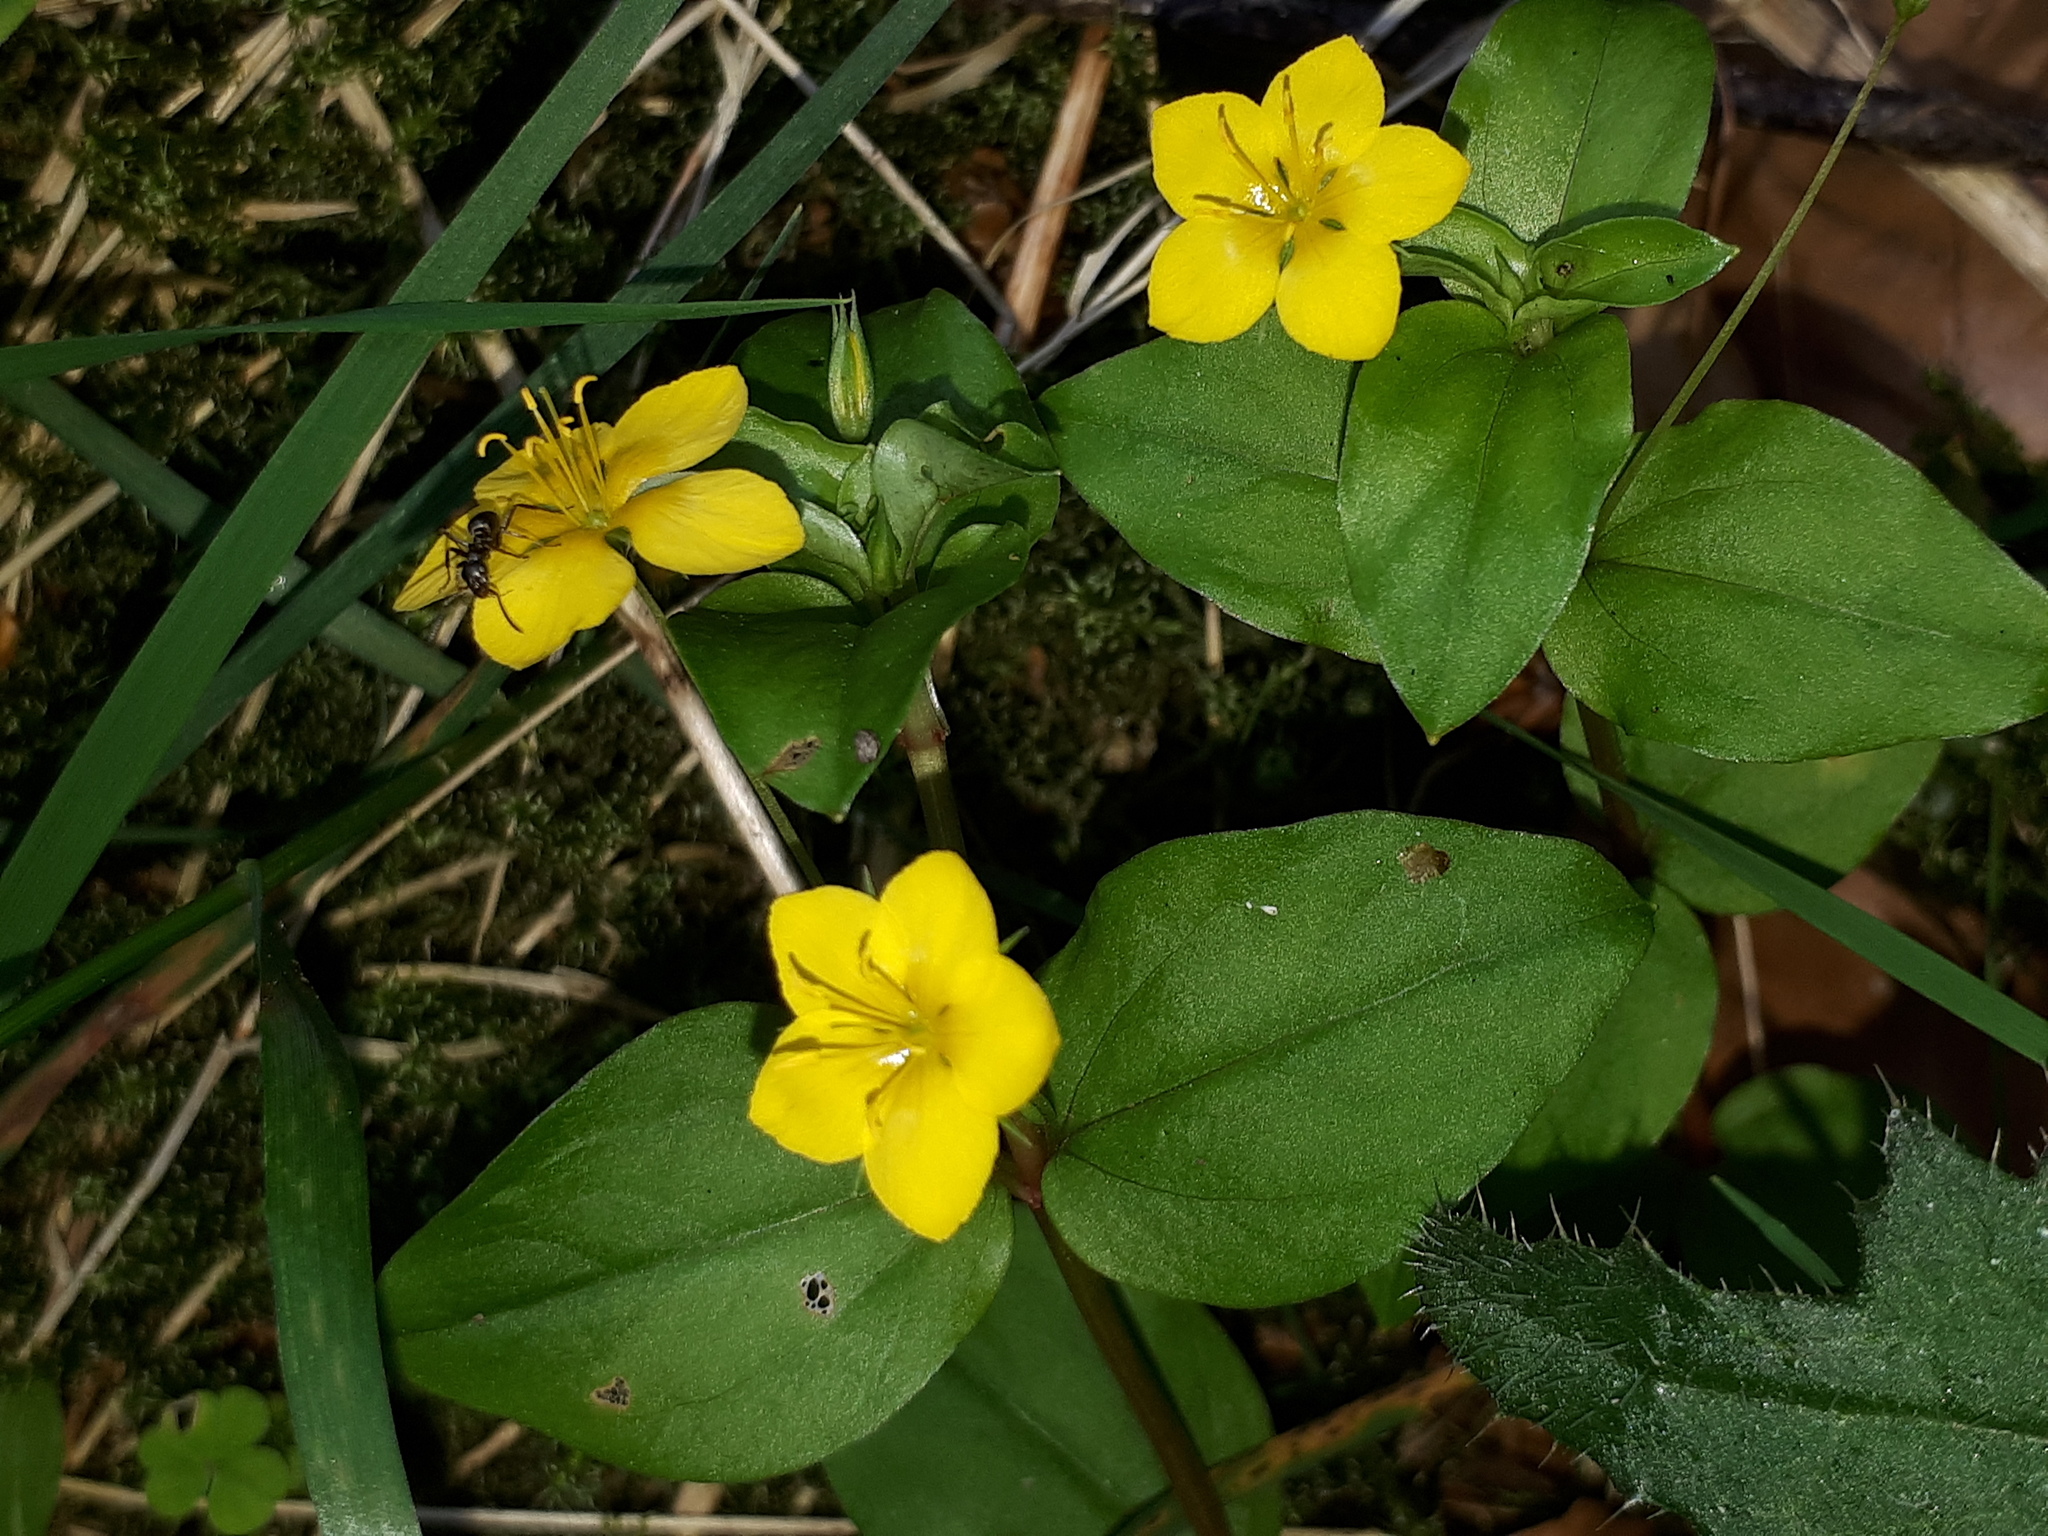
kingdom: Plantae
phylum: Tracheophyta
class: Magnoliopsida
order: Ericales
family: Primulaceae
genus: Lysimachia
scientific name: Lysimachia nemorum
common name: Yellow pimpernel
